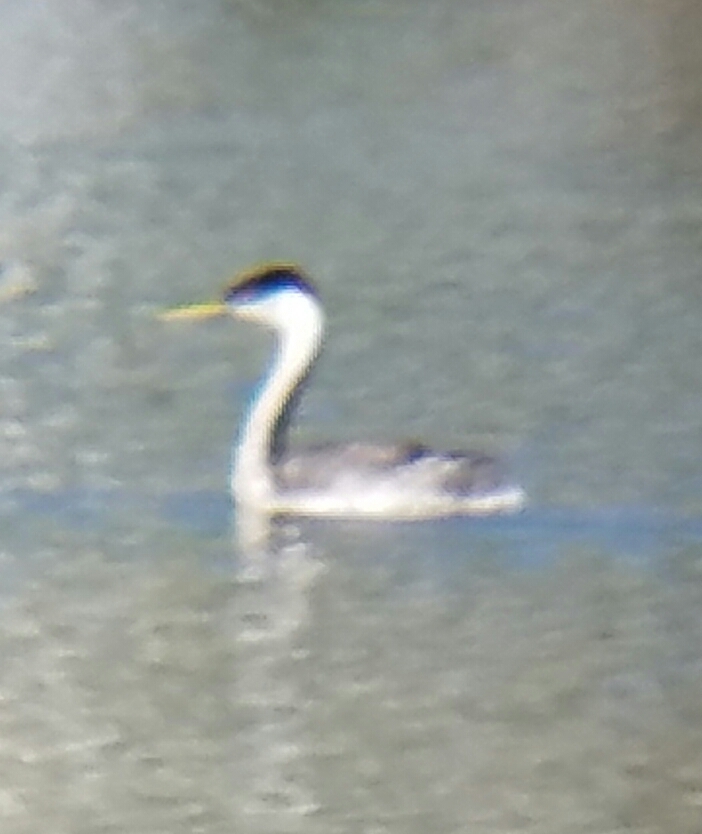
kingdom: Animalia
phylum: Chordata
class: Aves
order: Podicipediformes
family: Podicipedidae
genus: Aechmophorus
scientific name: Aechmophorus occidentalis
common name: Western grebe
